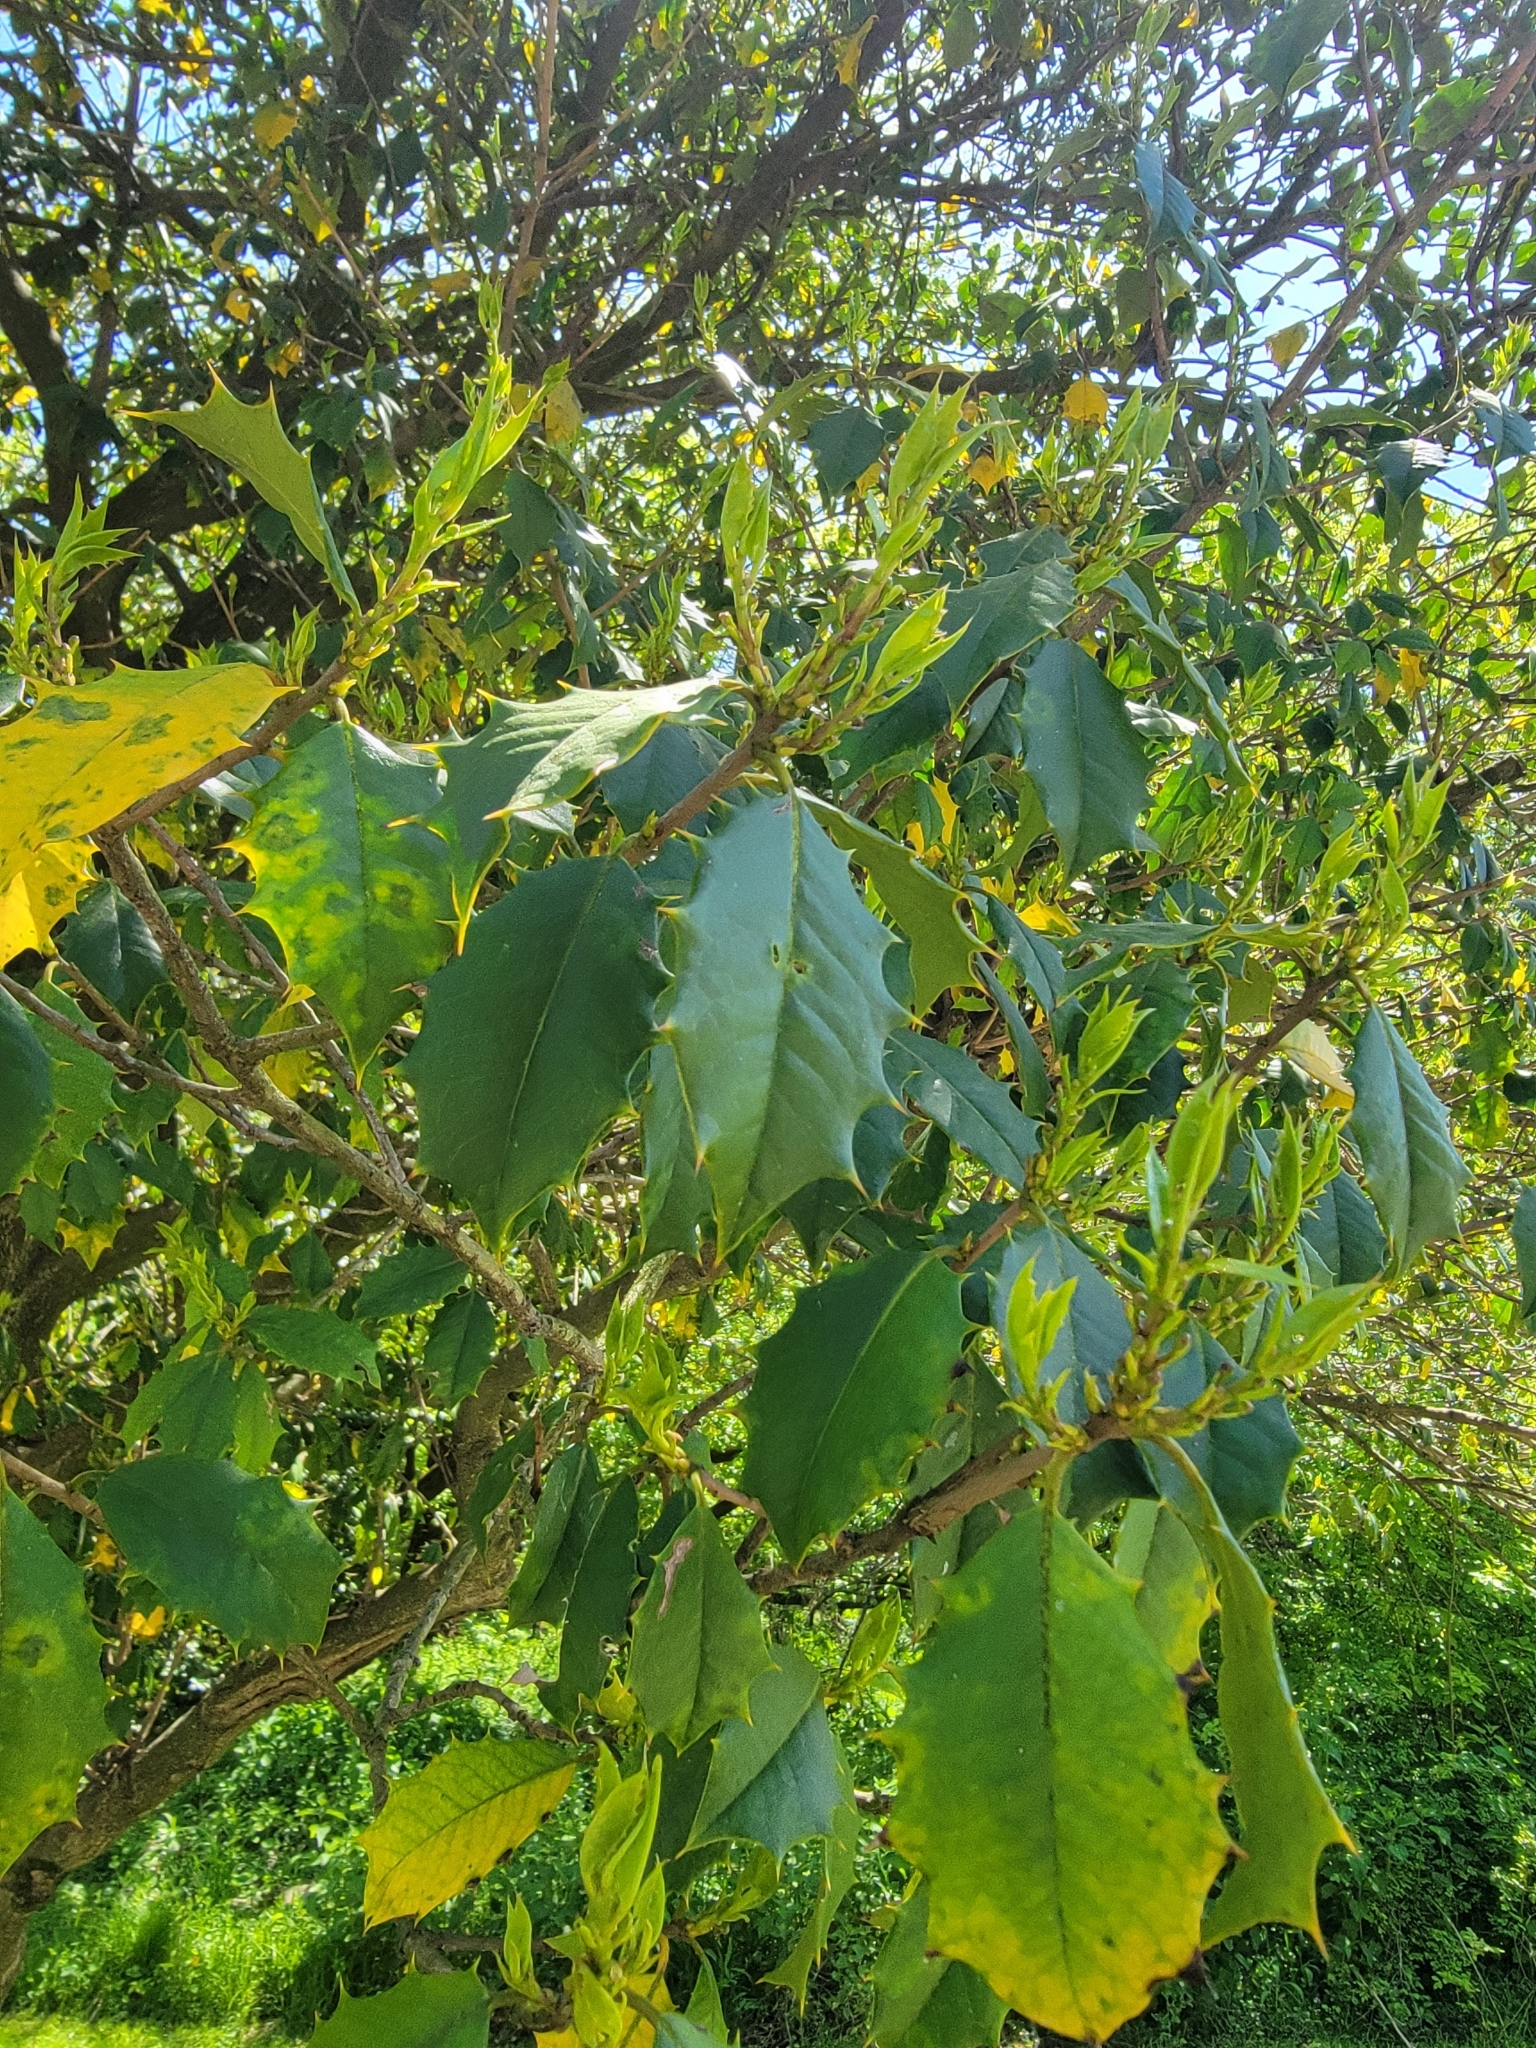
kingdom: Plantae
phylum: Tracheophyta
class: Magnoliopsida
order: Aquifoliales
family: Aquifoliaceae
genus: Ilex
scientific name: Ilex opaca
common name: American holly
